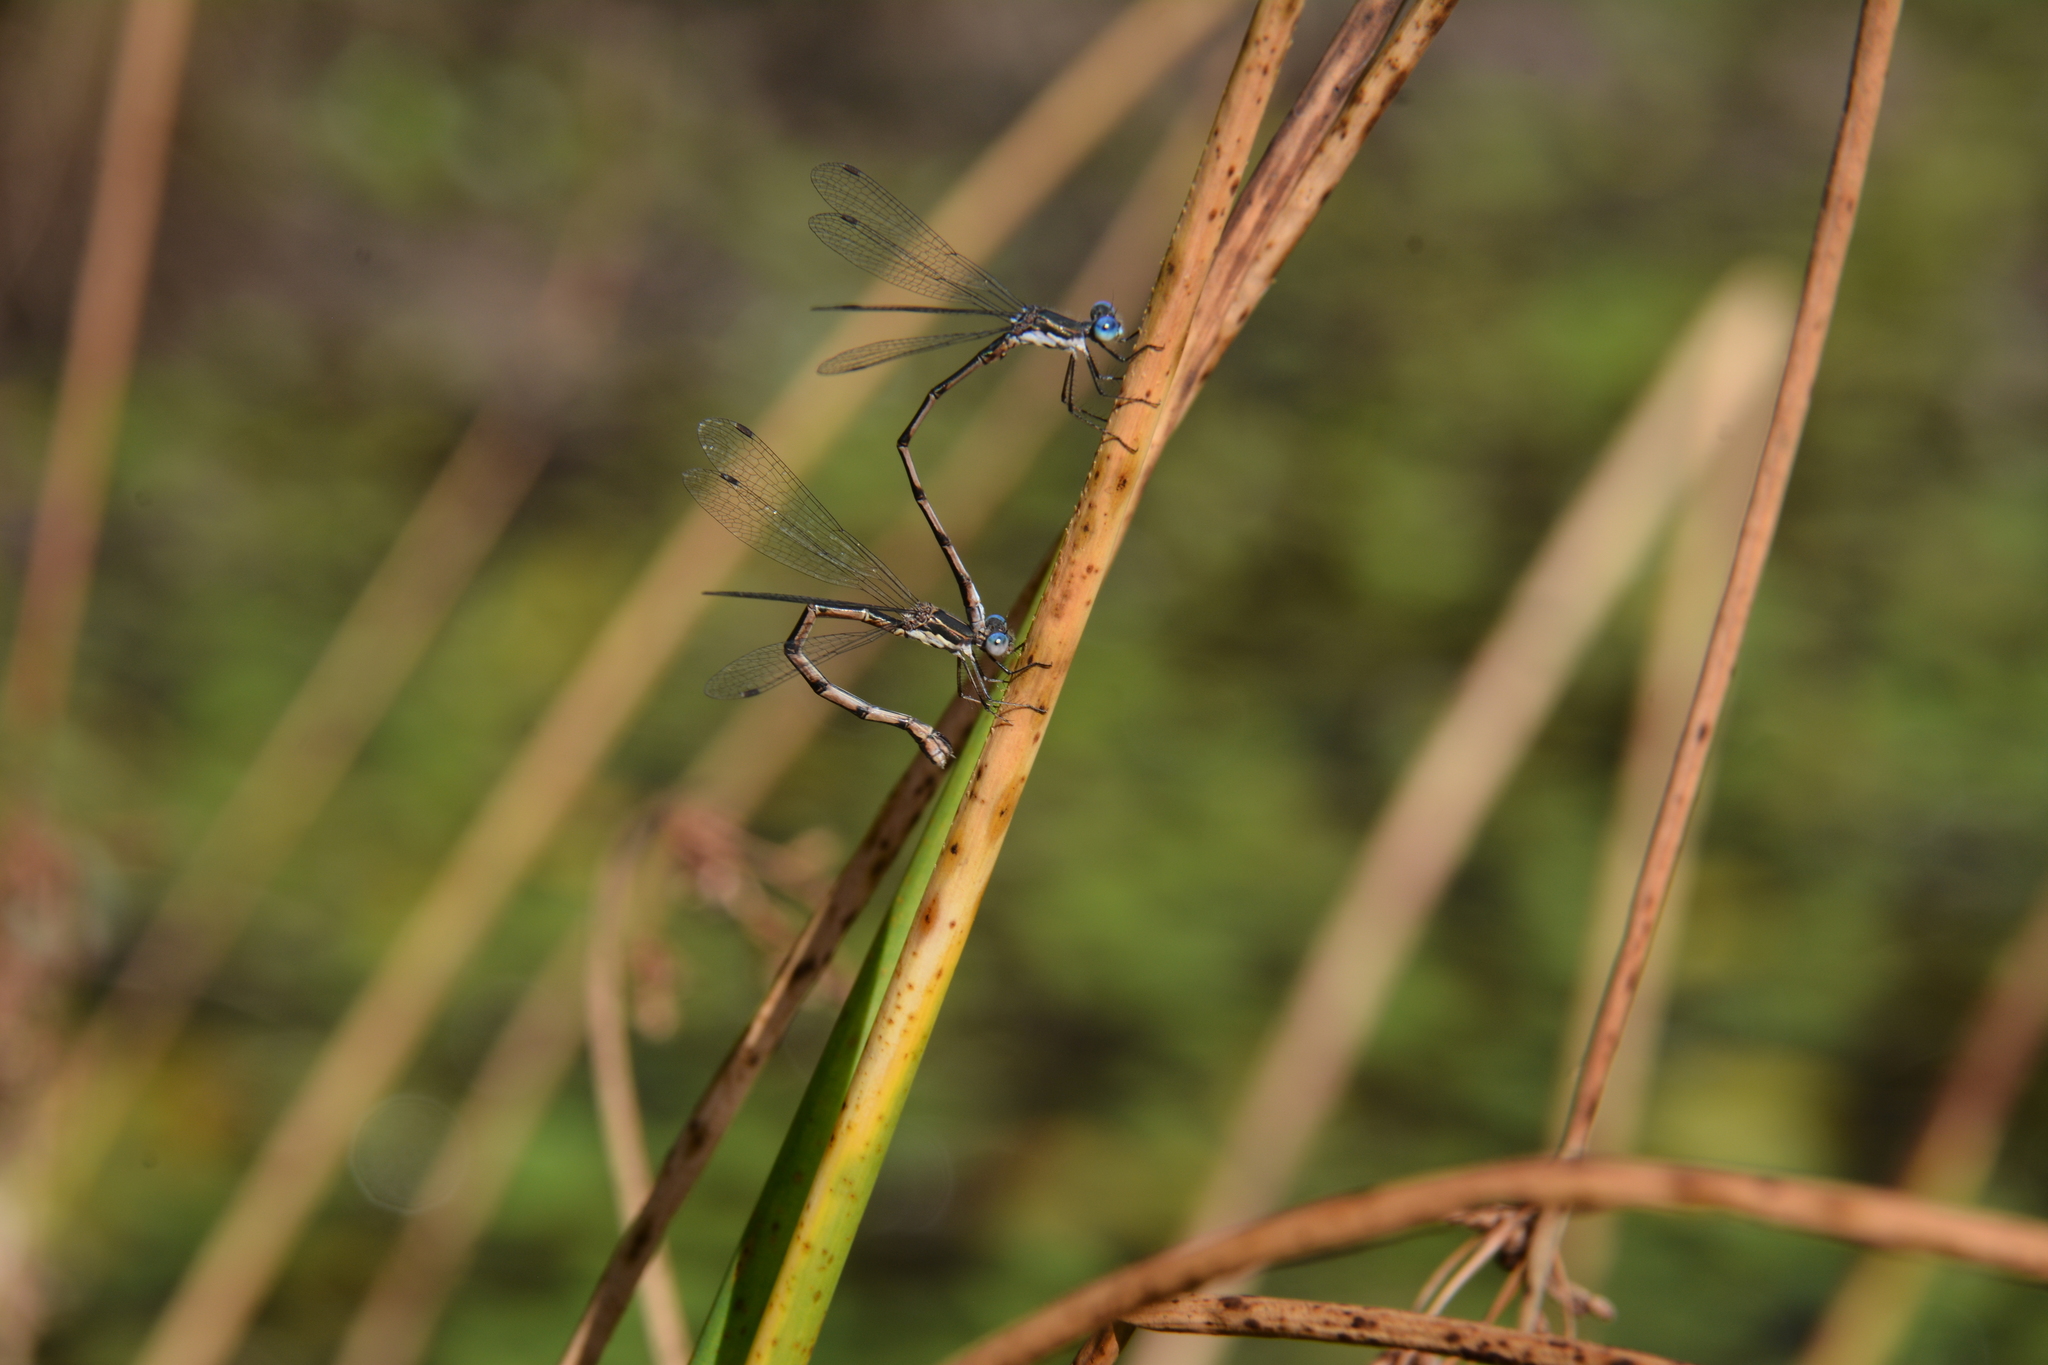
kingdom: Animalia
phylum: Arthropoda
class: Insecta
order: Odonata
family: Lestidae
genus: Lestes
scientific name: Lestes congener
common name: Spotted spreadwing
